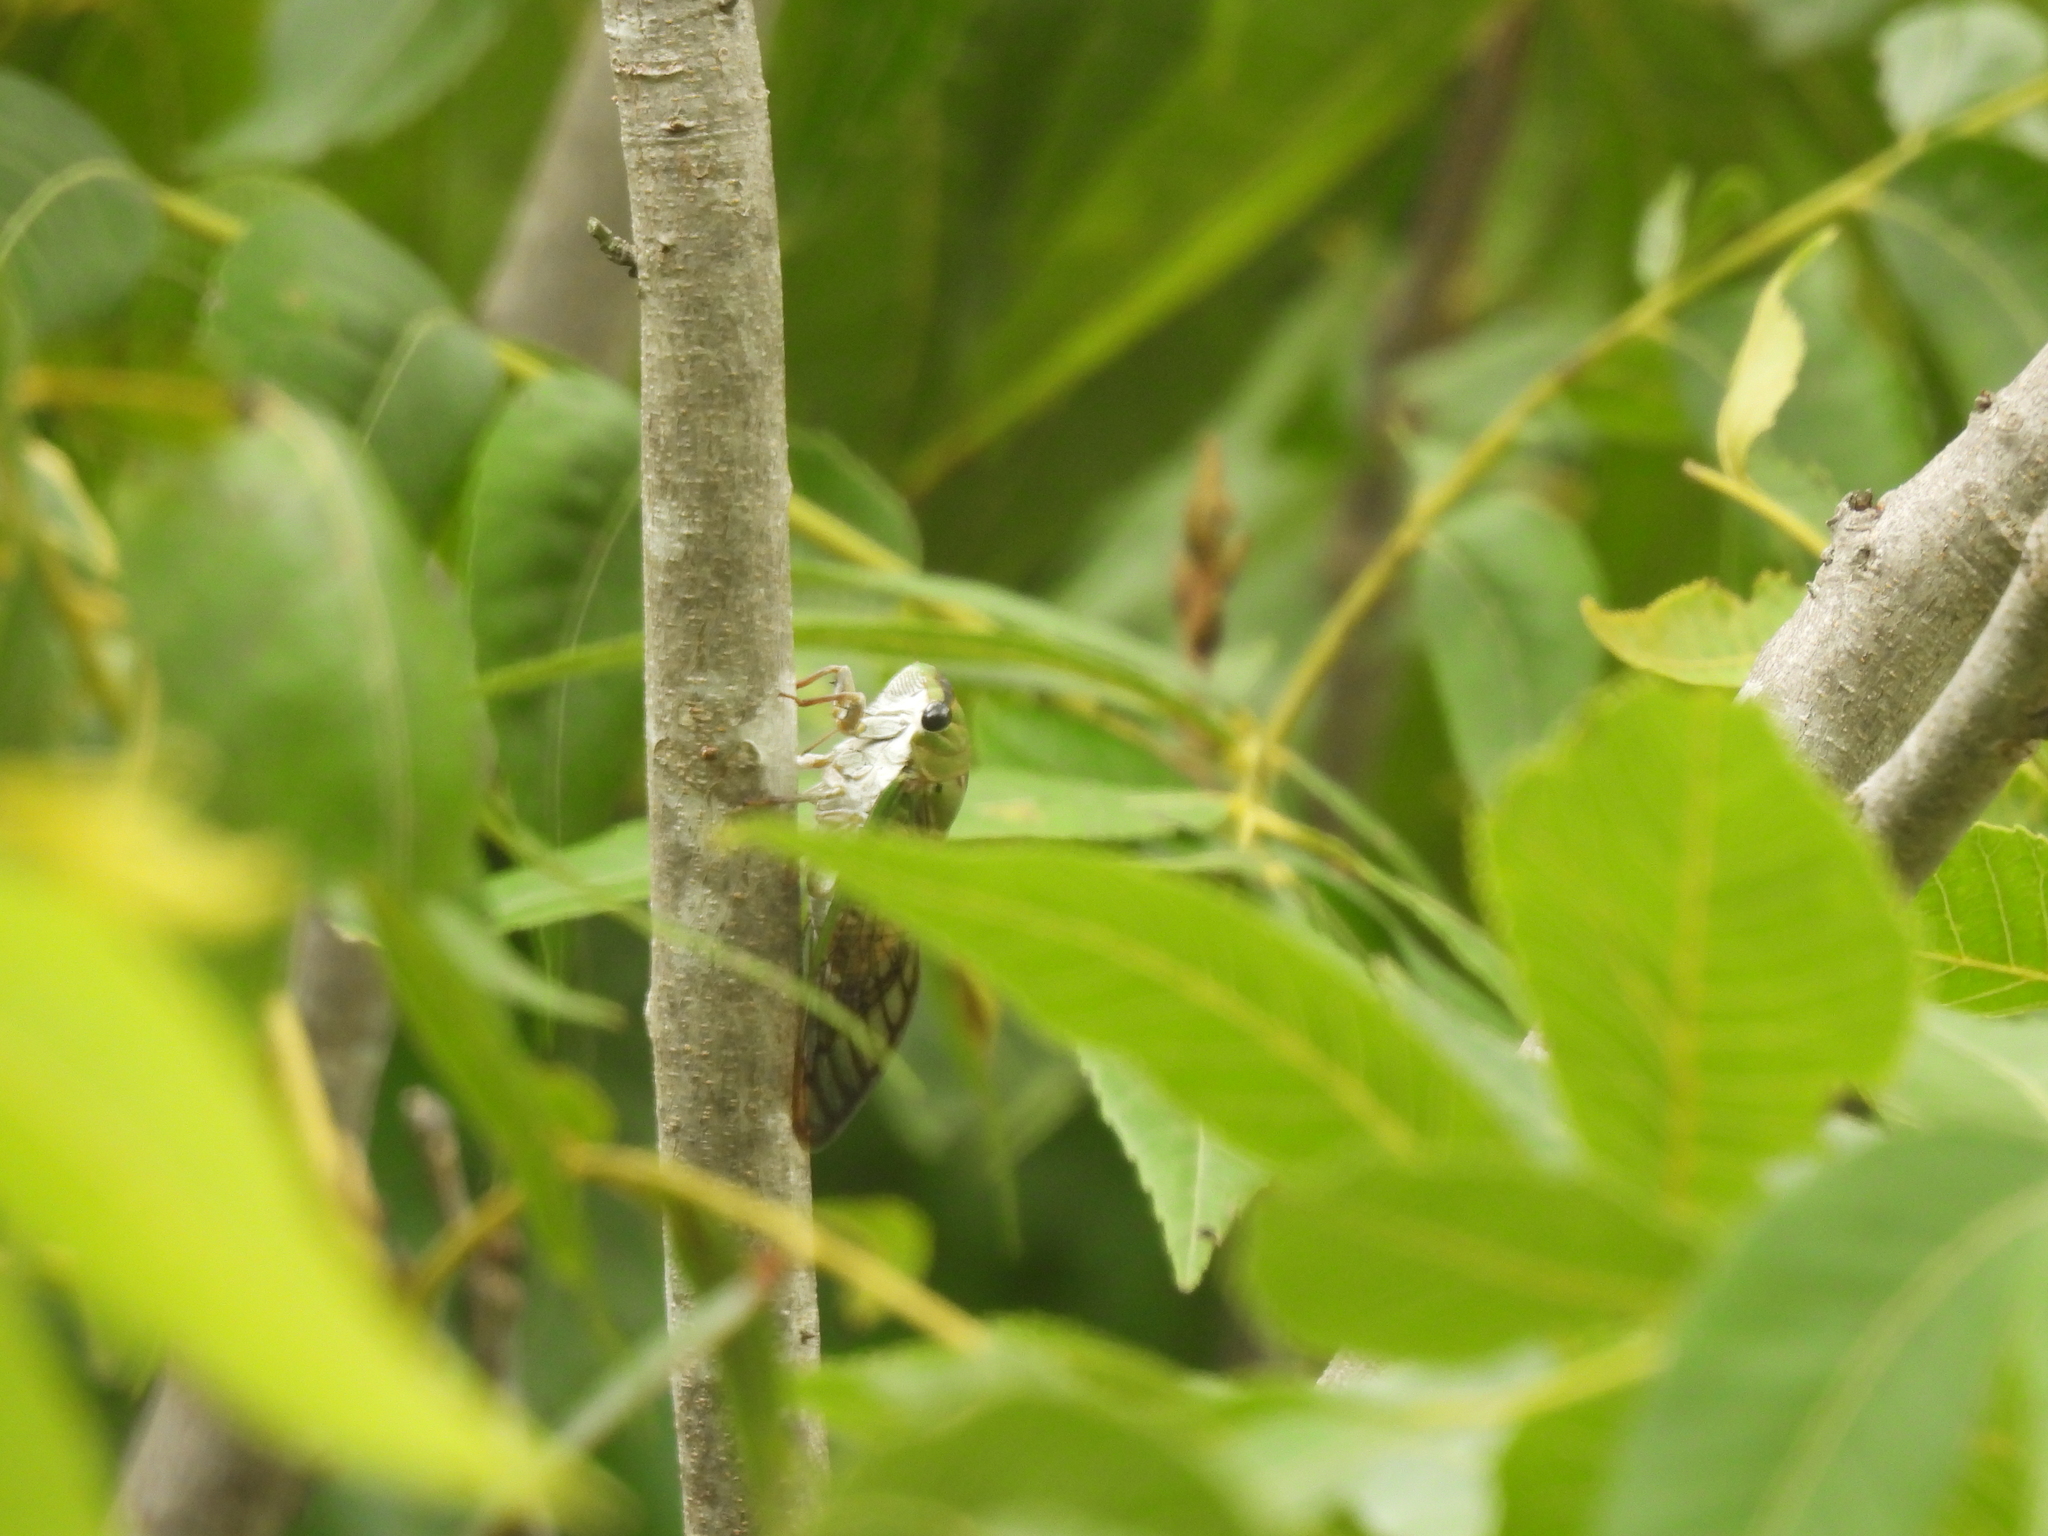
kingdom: Animalia
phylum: Arthropoda
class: Insecta
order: Hemiptera
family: Cicadidae
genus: Neotibicen
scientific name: Neotibicen superbus
